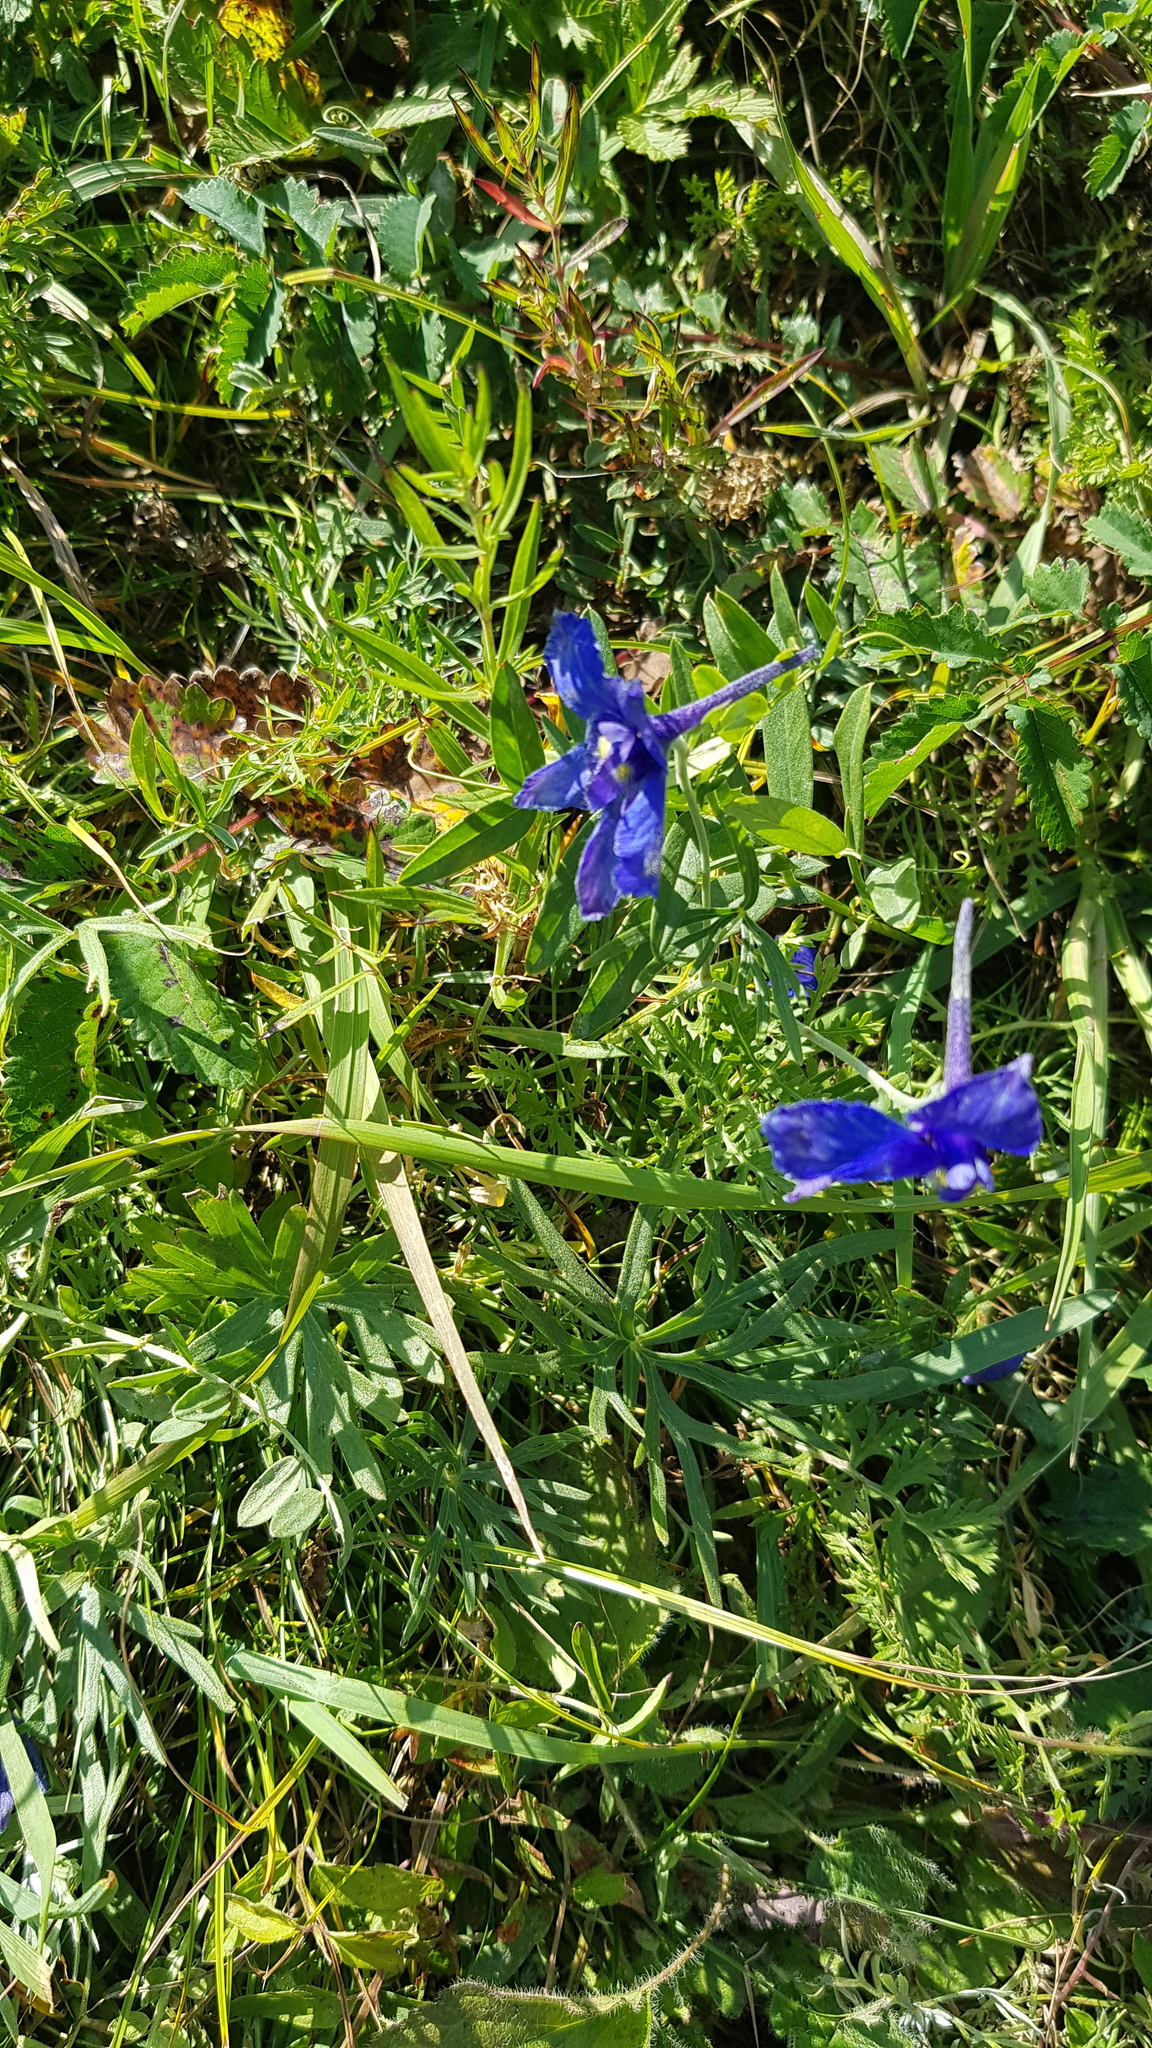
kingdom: Plantae
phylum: Tracheophyta
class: Magnoliopsida
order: Ranunculales
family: Ranunculaceae
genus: Delphinium
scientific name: Delphinium grandiflorum
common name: Siberian larkspur
